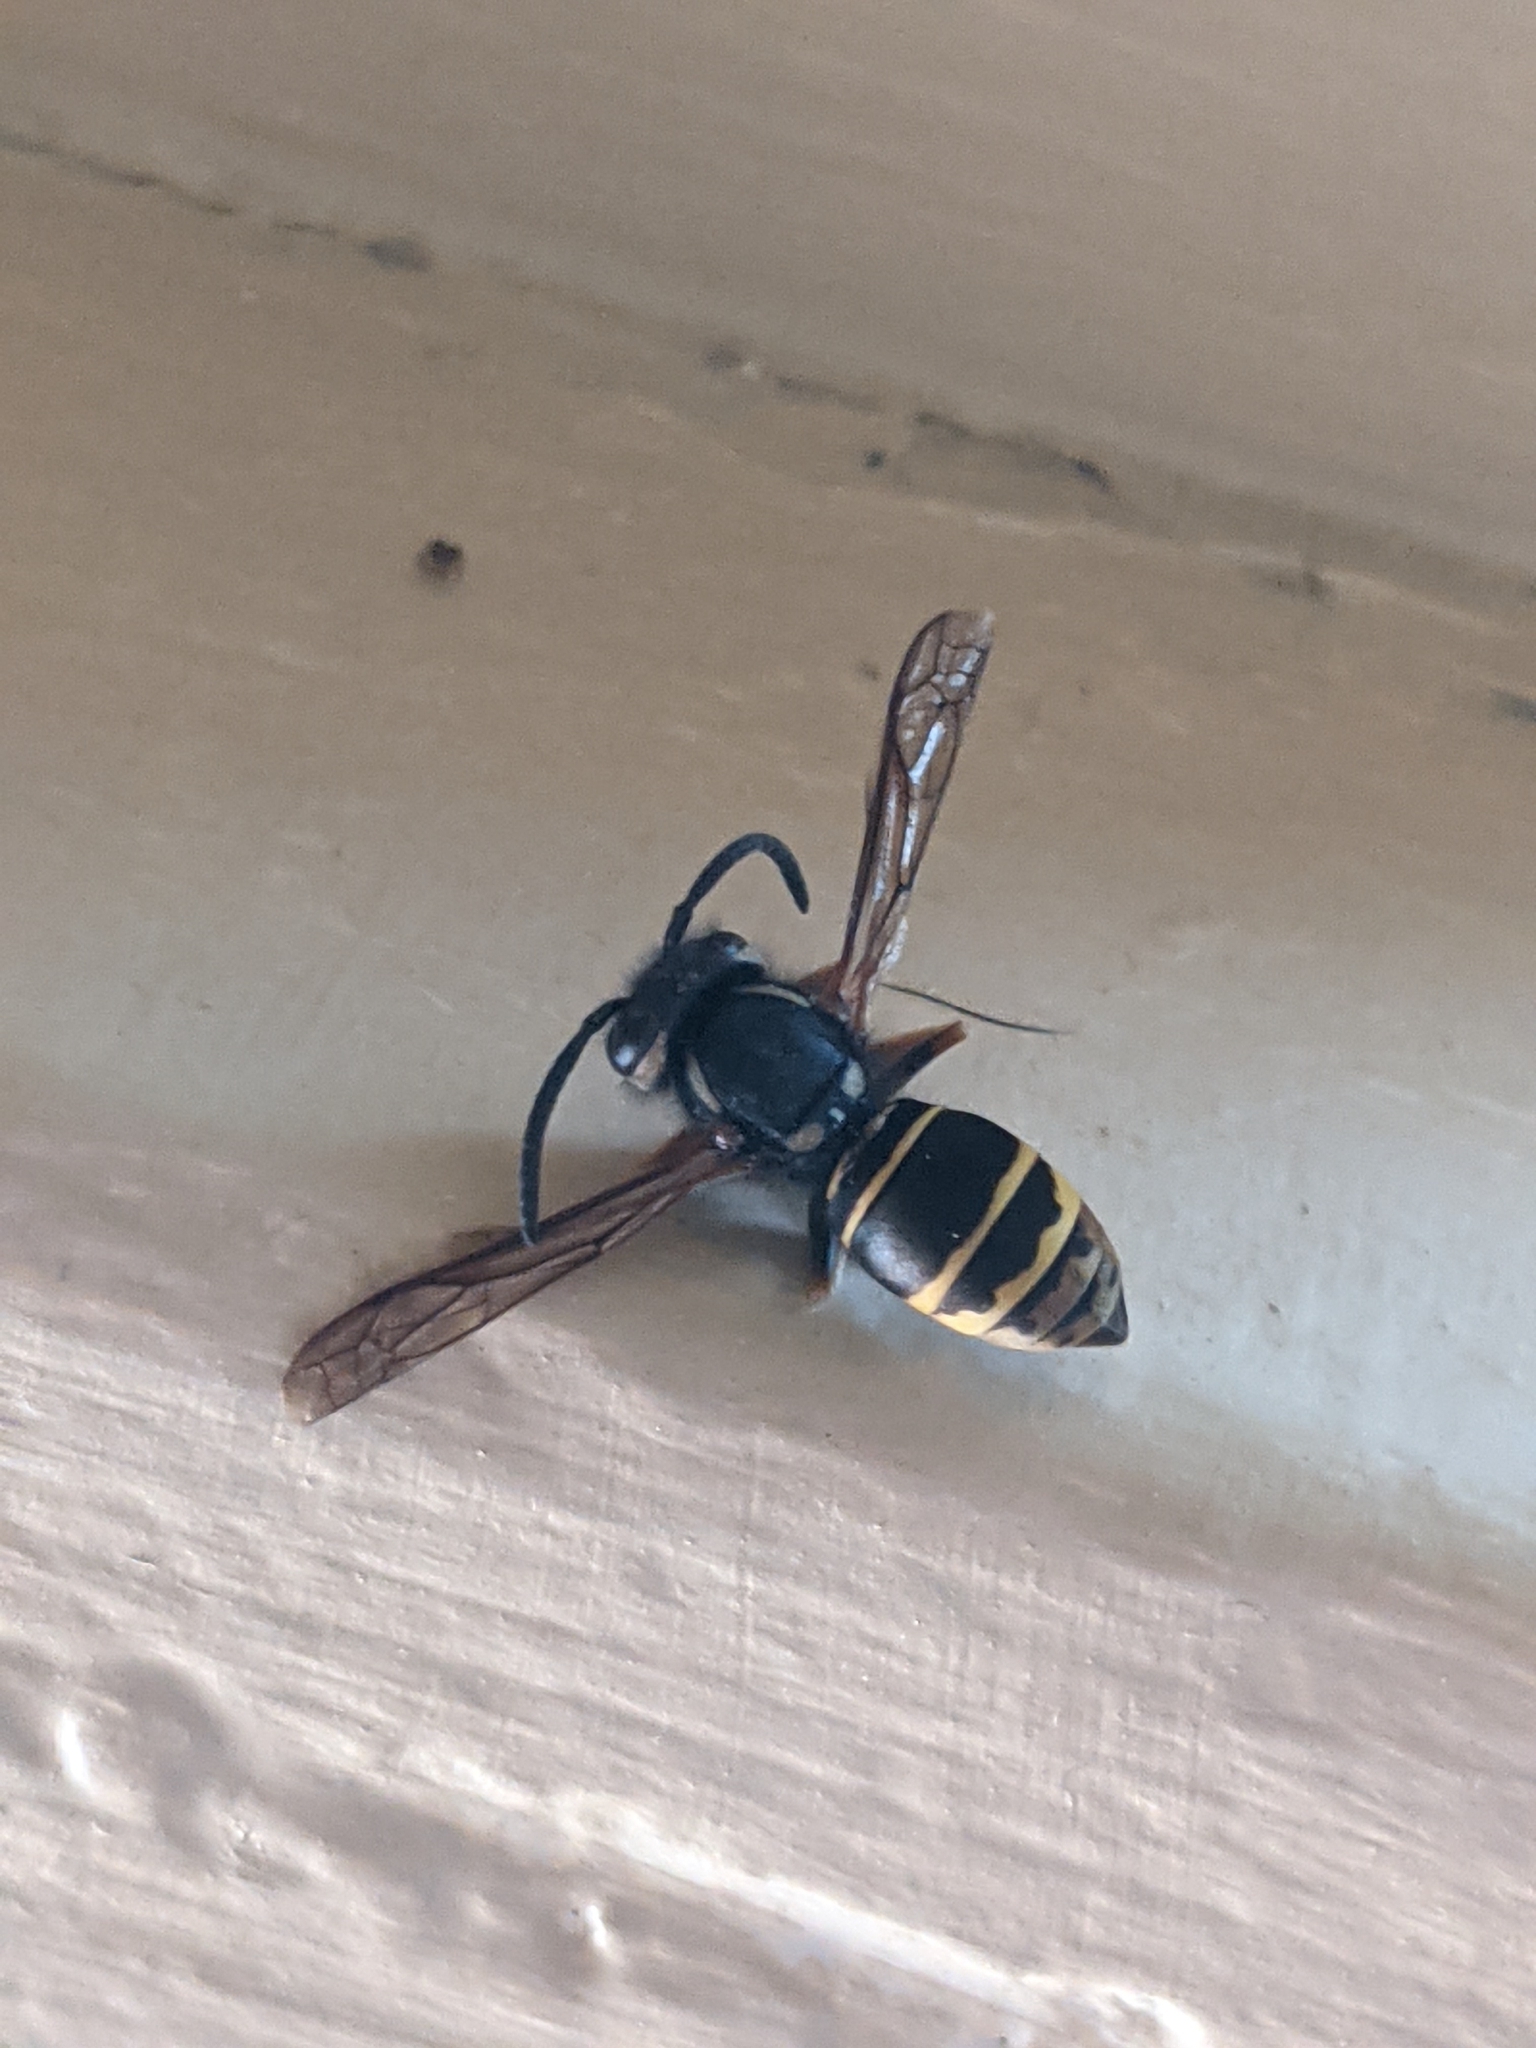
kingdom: Animalia
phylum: Arthropoda
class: Insecta
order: Hymenoptera
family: Vespidae
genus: Vespula
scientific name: Vespula vidua
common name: Widow yellowjacket
